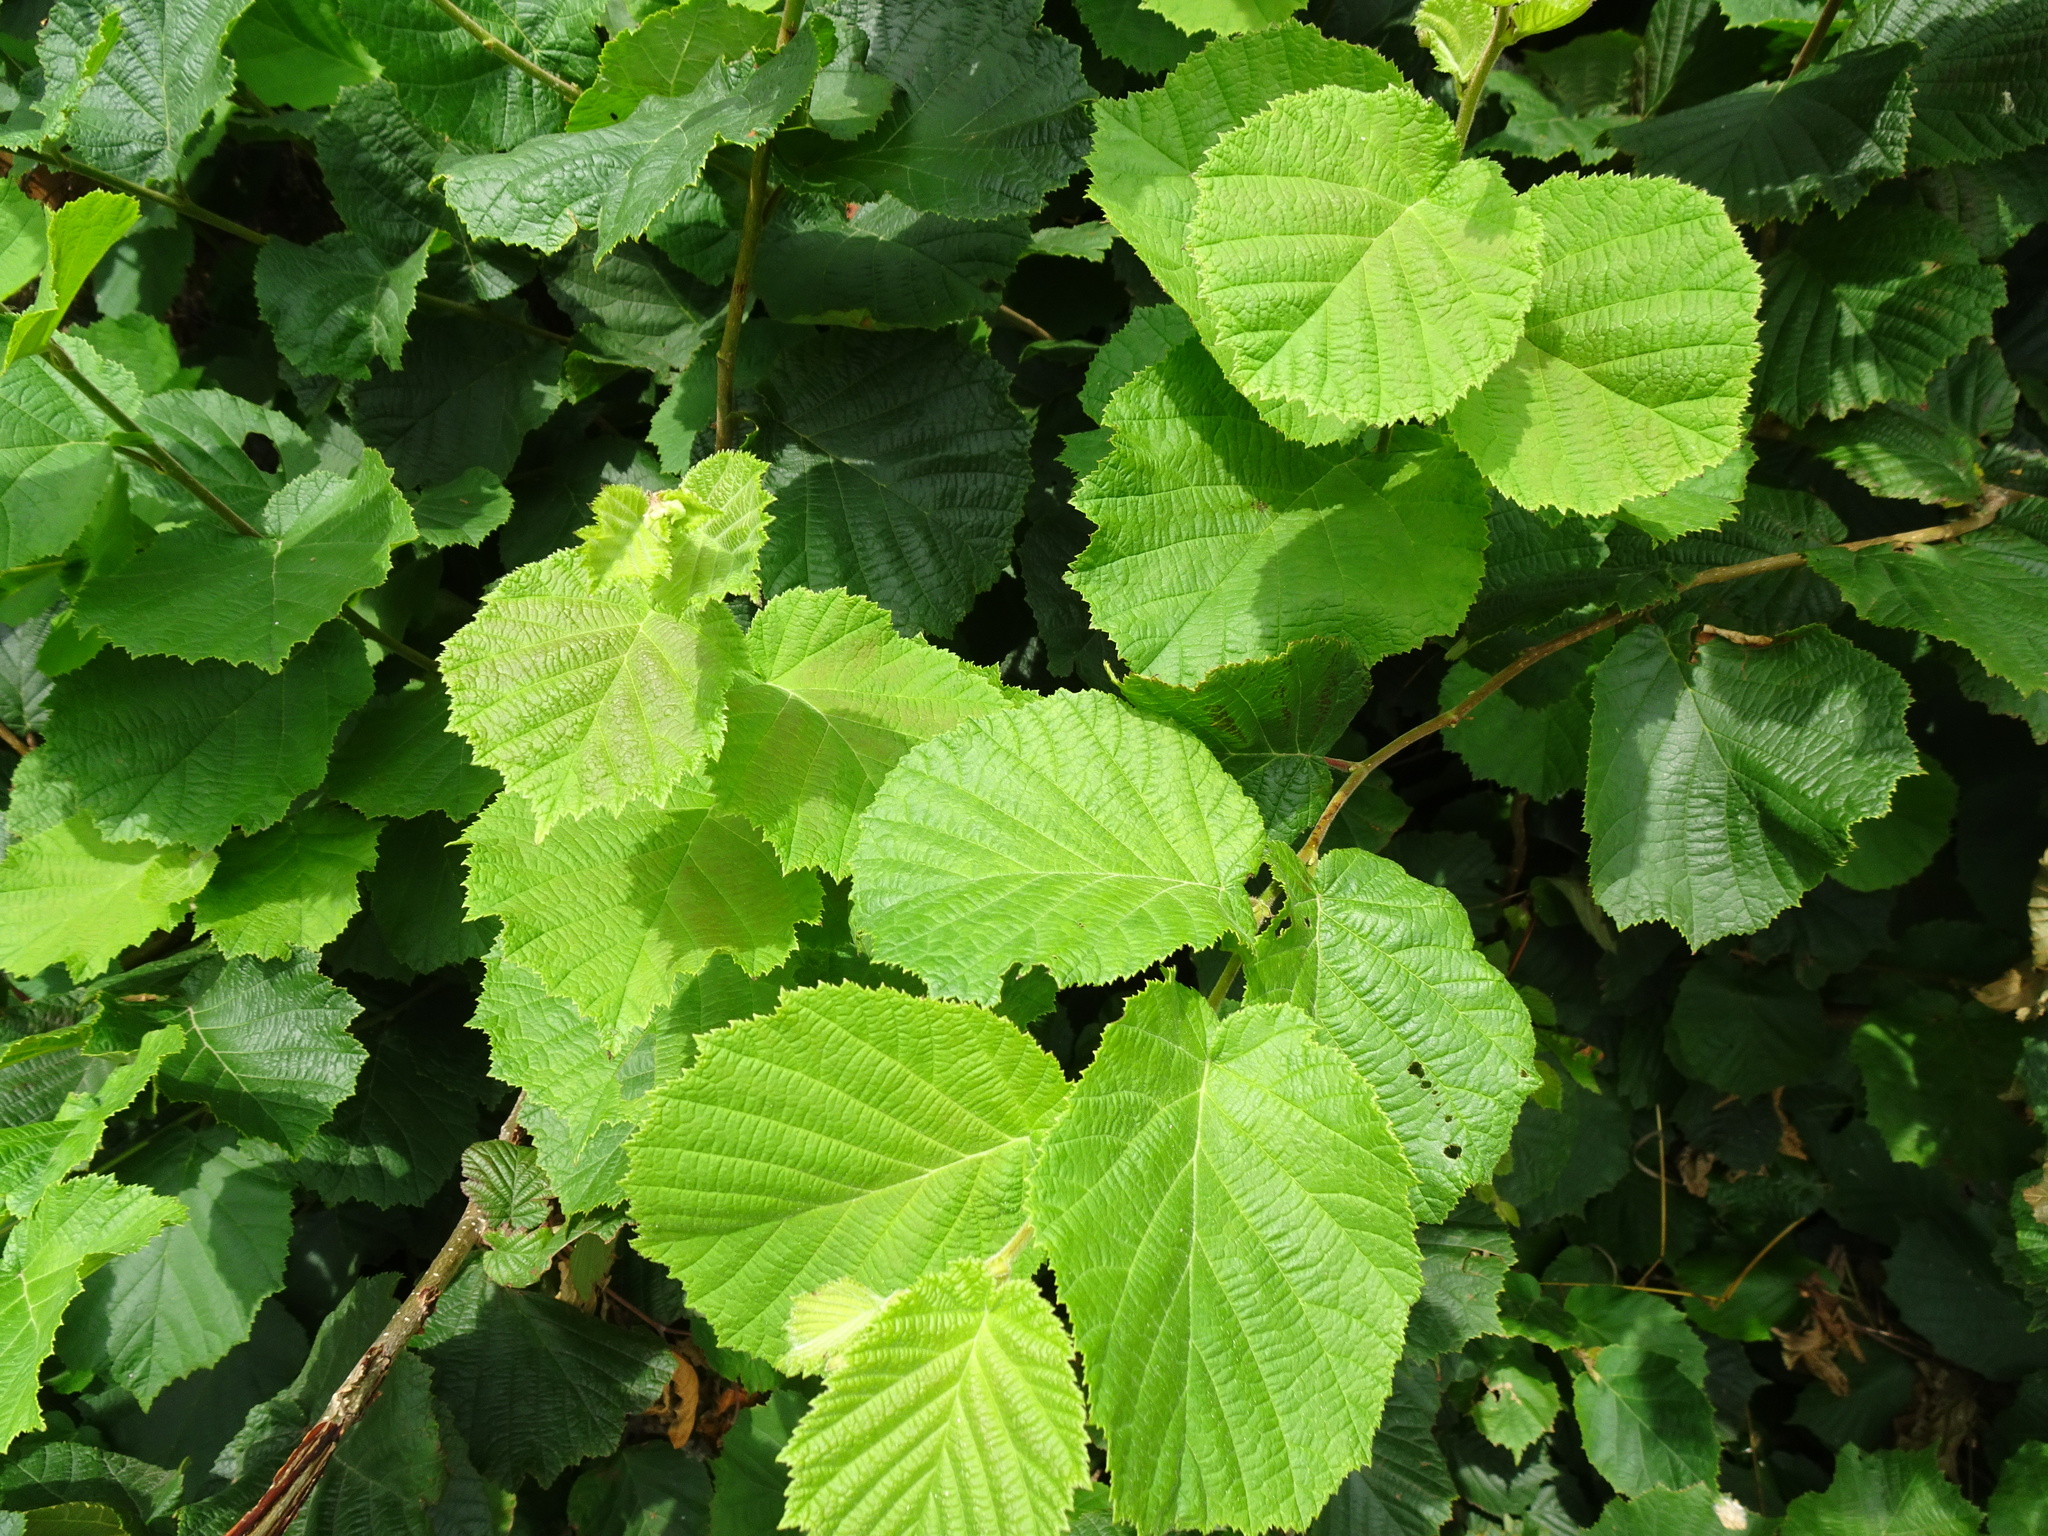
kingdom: Plantae
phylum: Tracheophyta
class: Magnoliopsida
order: Fagales
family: Betulaceae
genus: Corylus
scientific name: Corylus avellana
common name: European hazel
